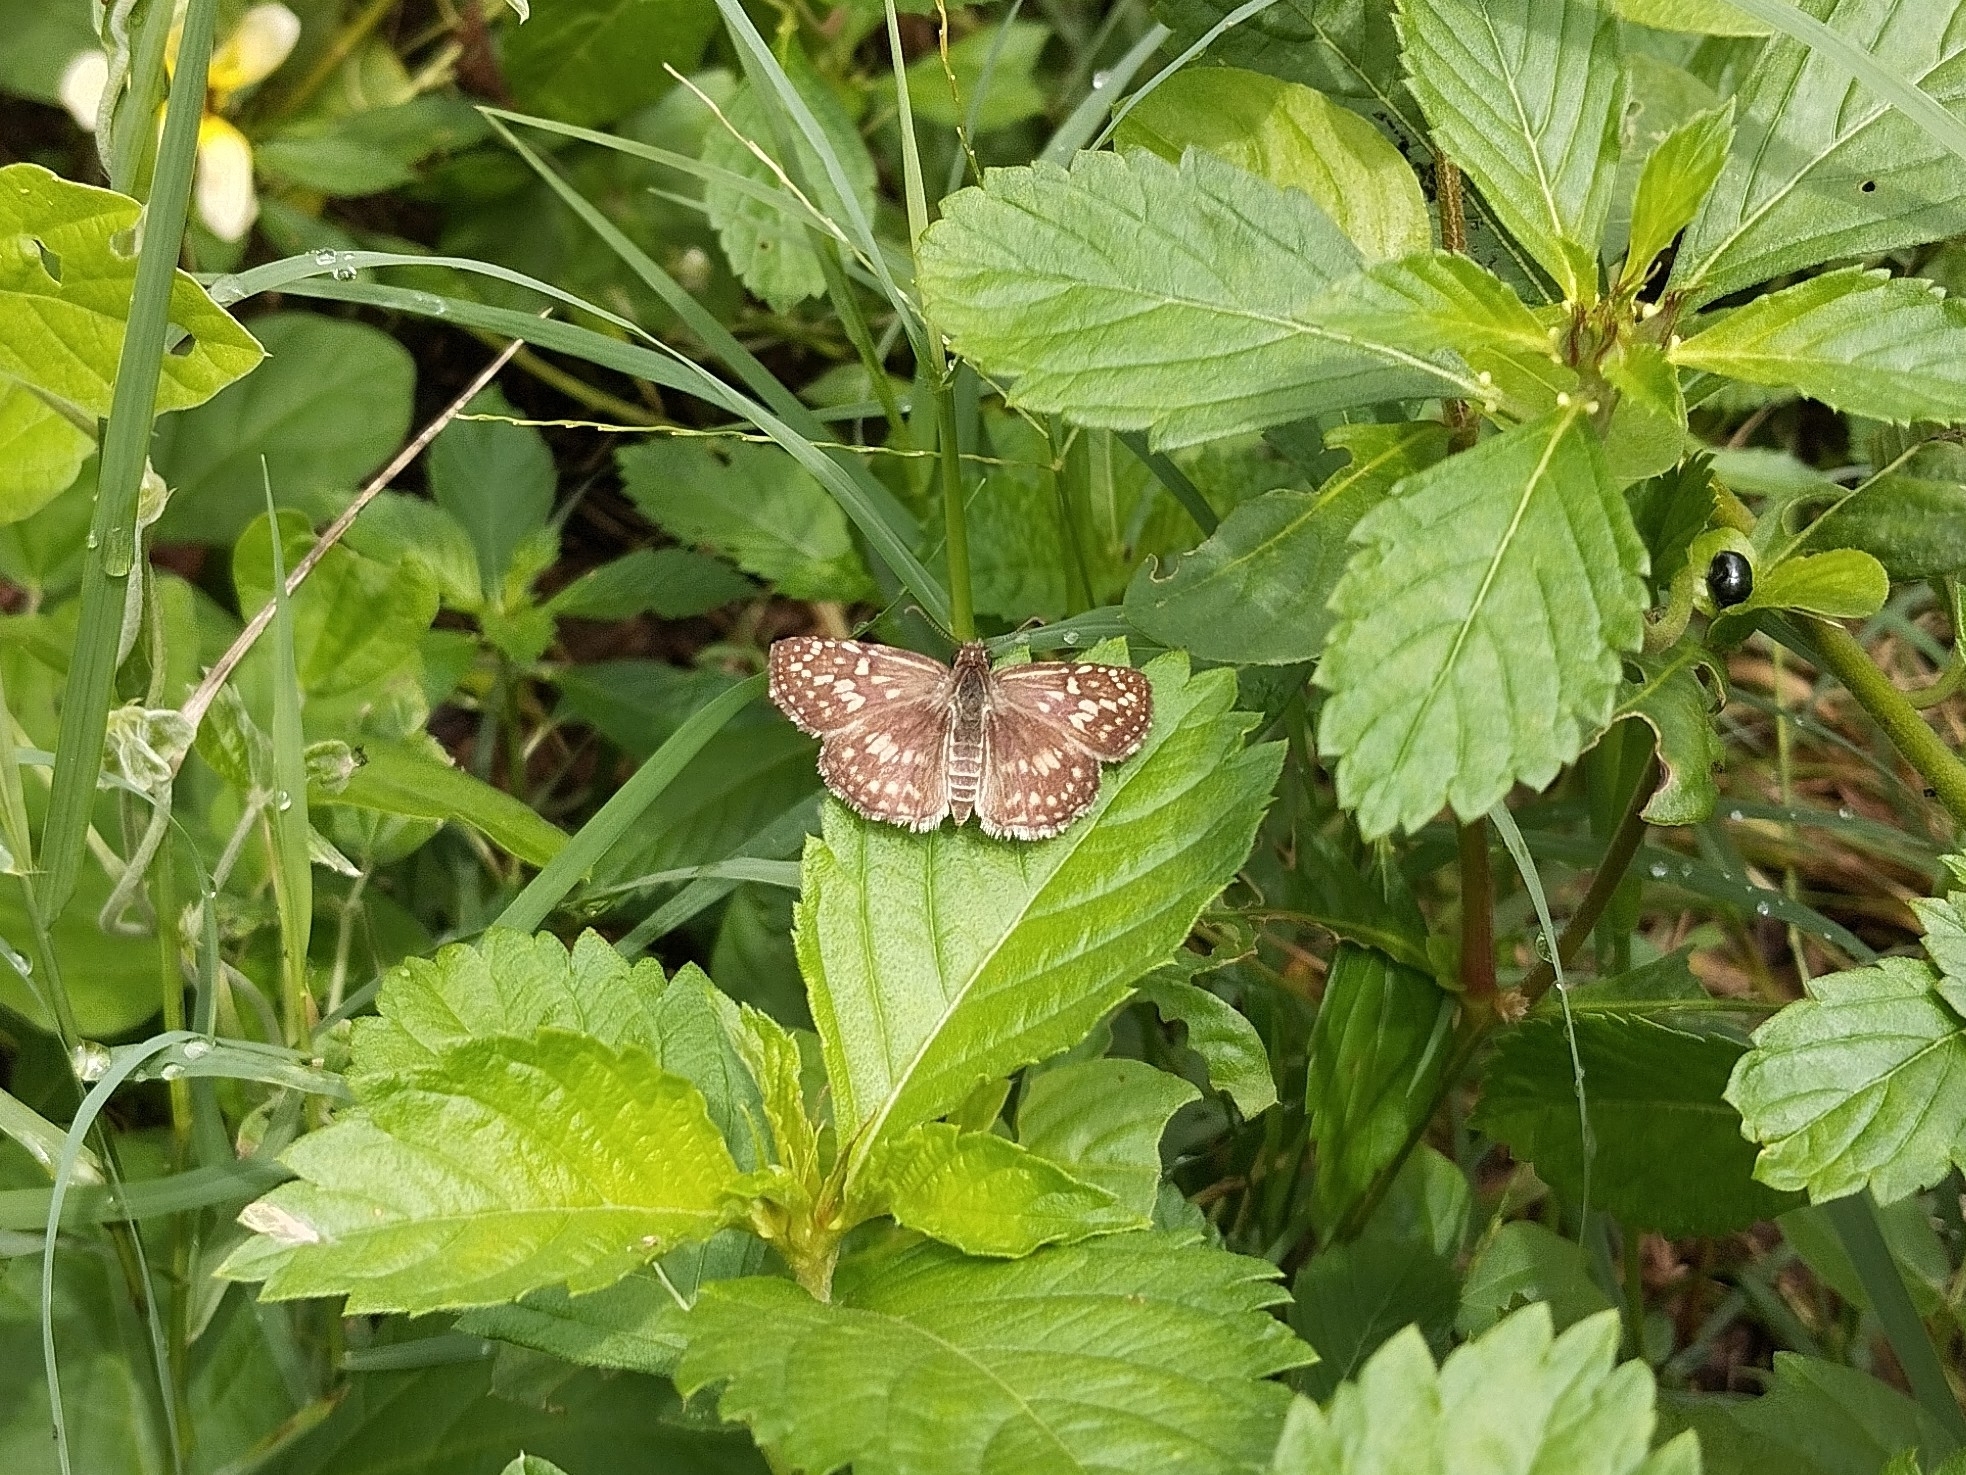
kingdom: Animalia
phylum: Arthropoda
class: Insecta
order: Lepidoptera
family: Hesperiidae
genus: Pyrgus
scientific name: Pyrgus oileus
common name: Tropical checkered-skipper
